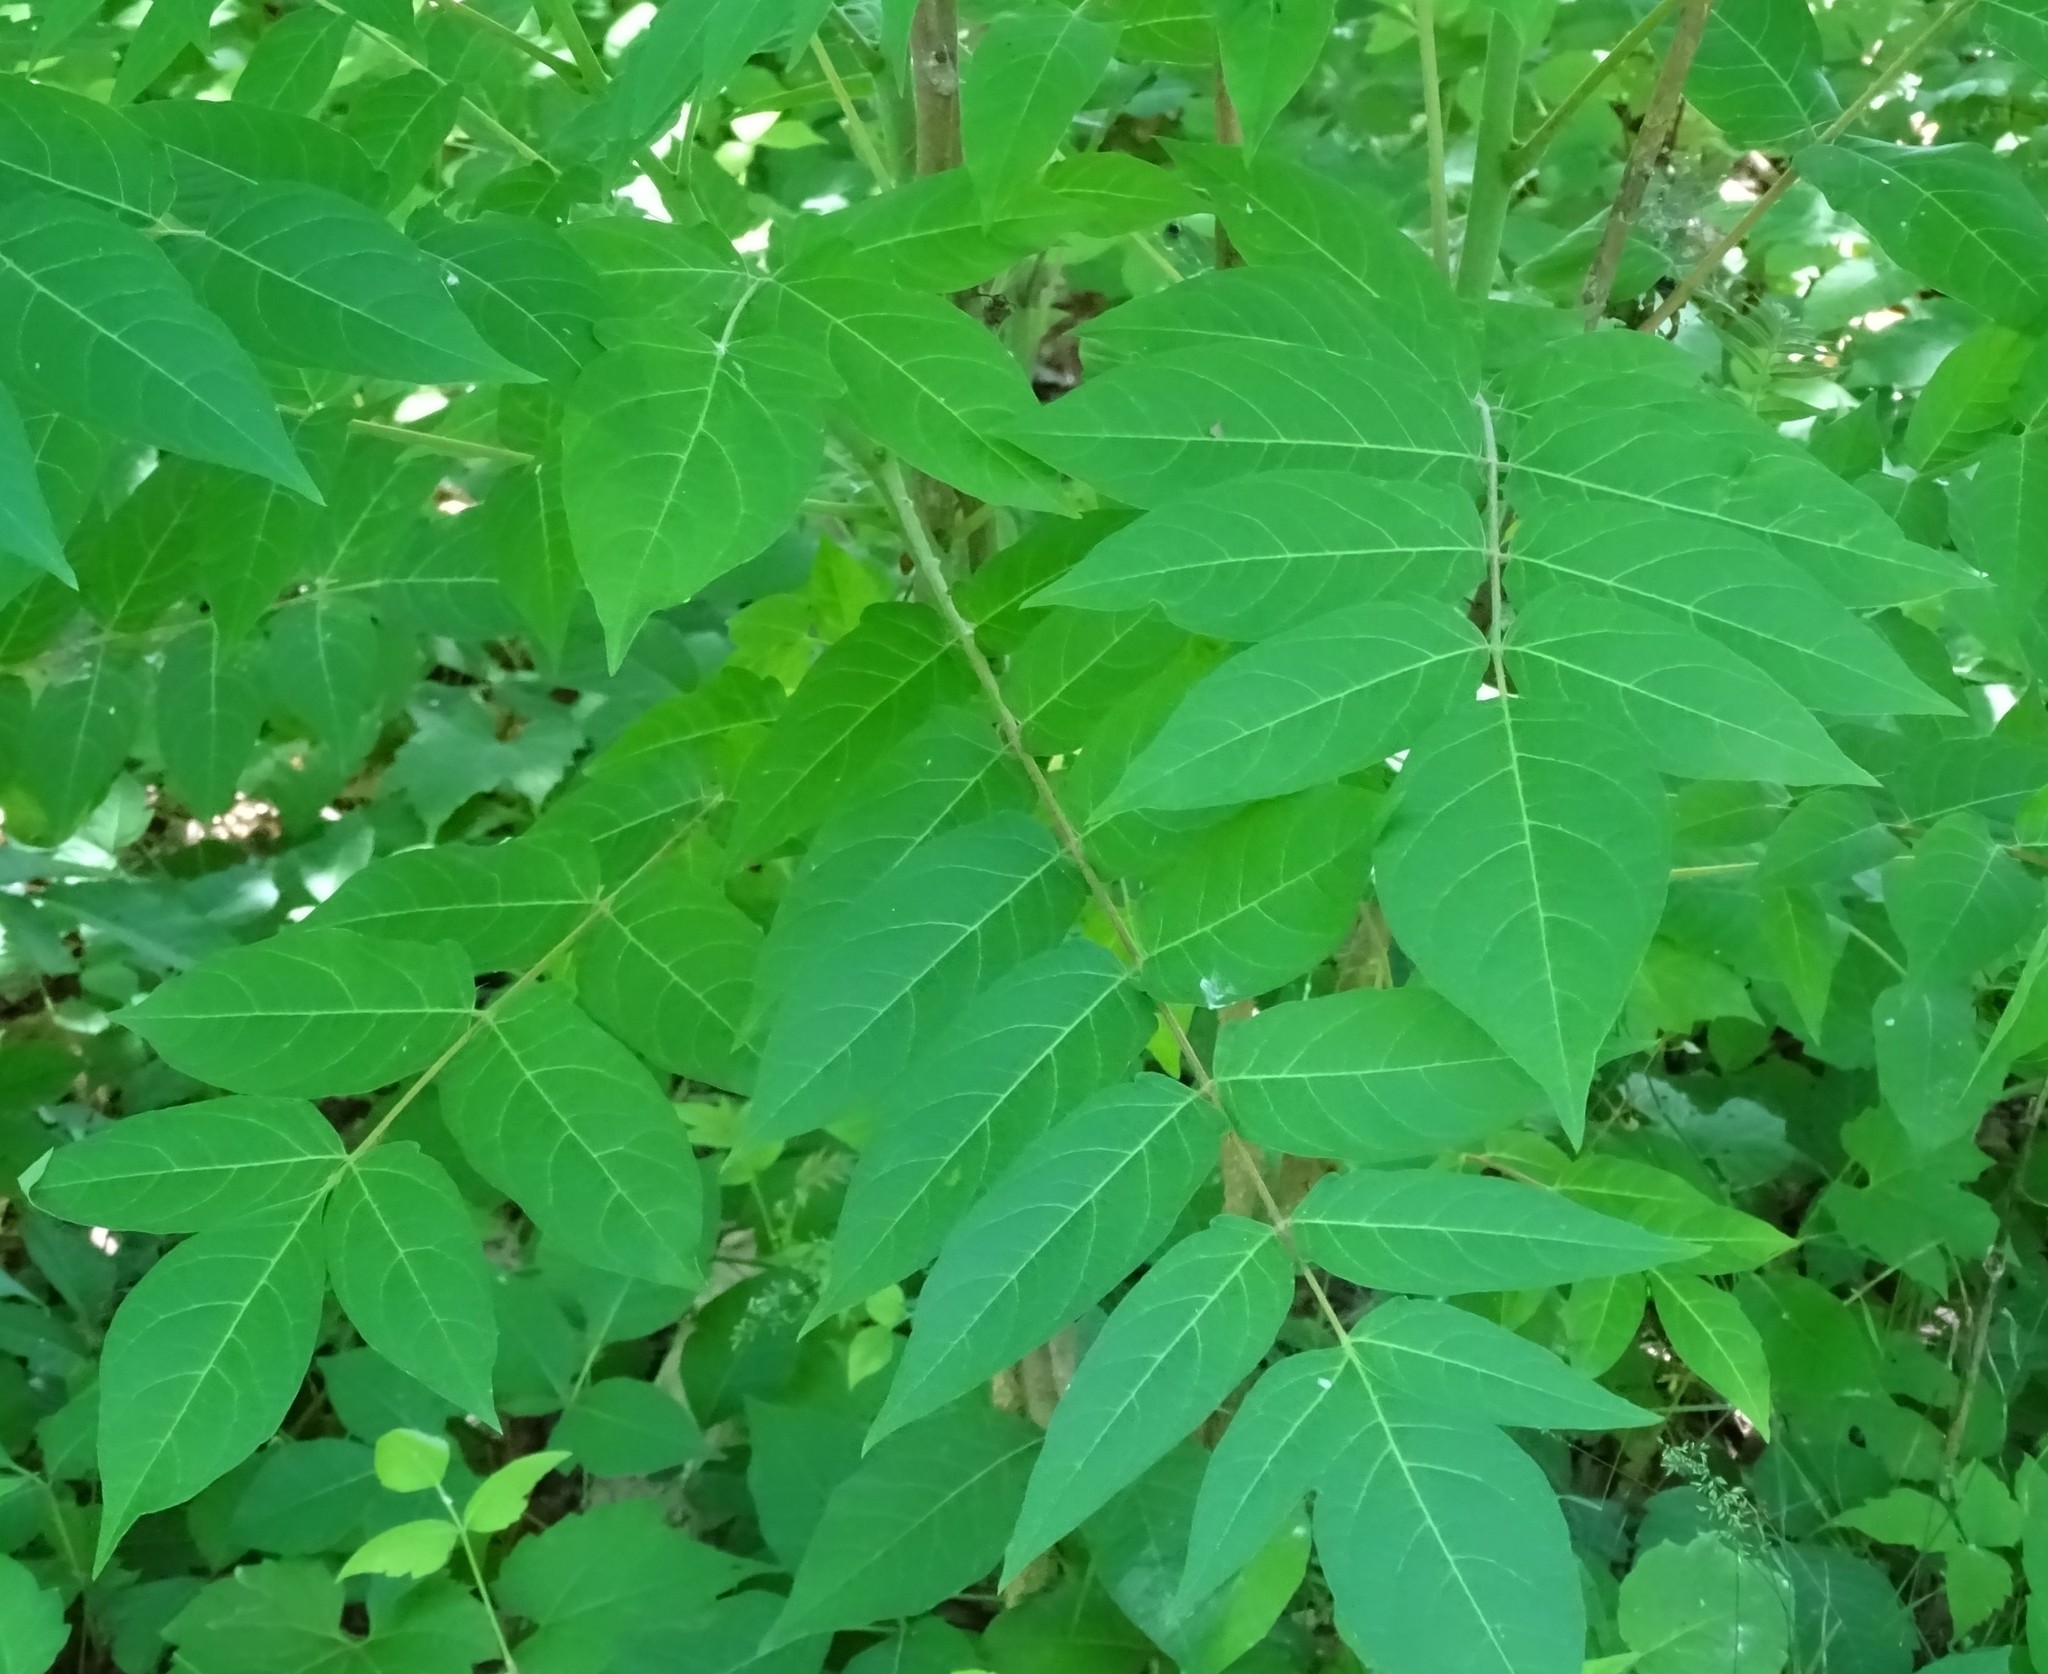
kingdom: Plantae
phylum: Tracheophyta
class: Magnoliopsida
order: Sapindales
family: Simaroubaceae
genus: Ailanthus
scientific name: Ailanthus altissima
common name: Tree-of-heaven
